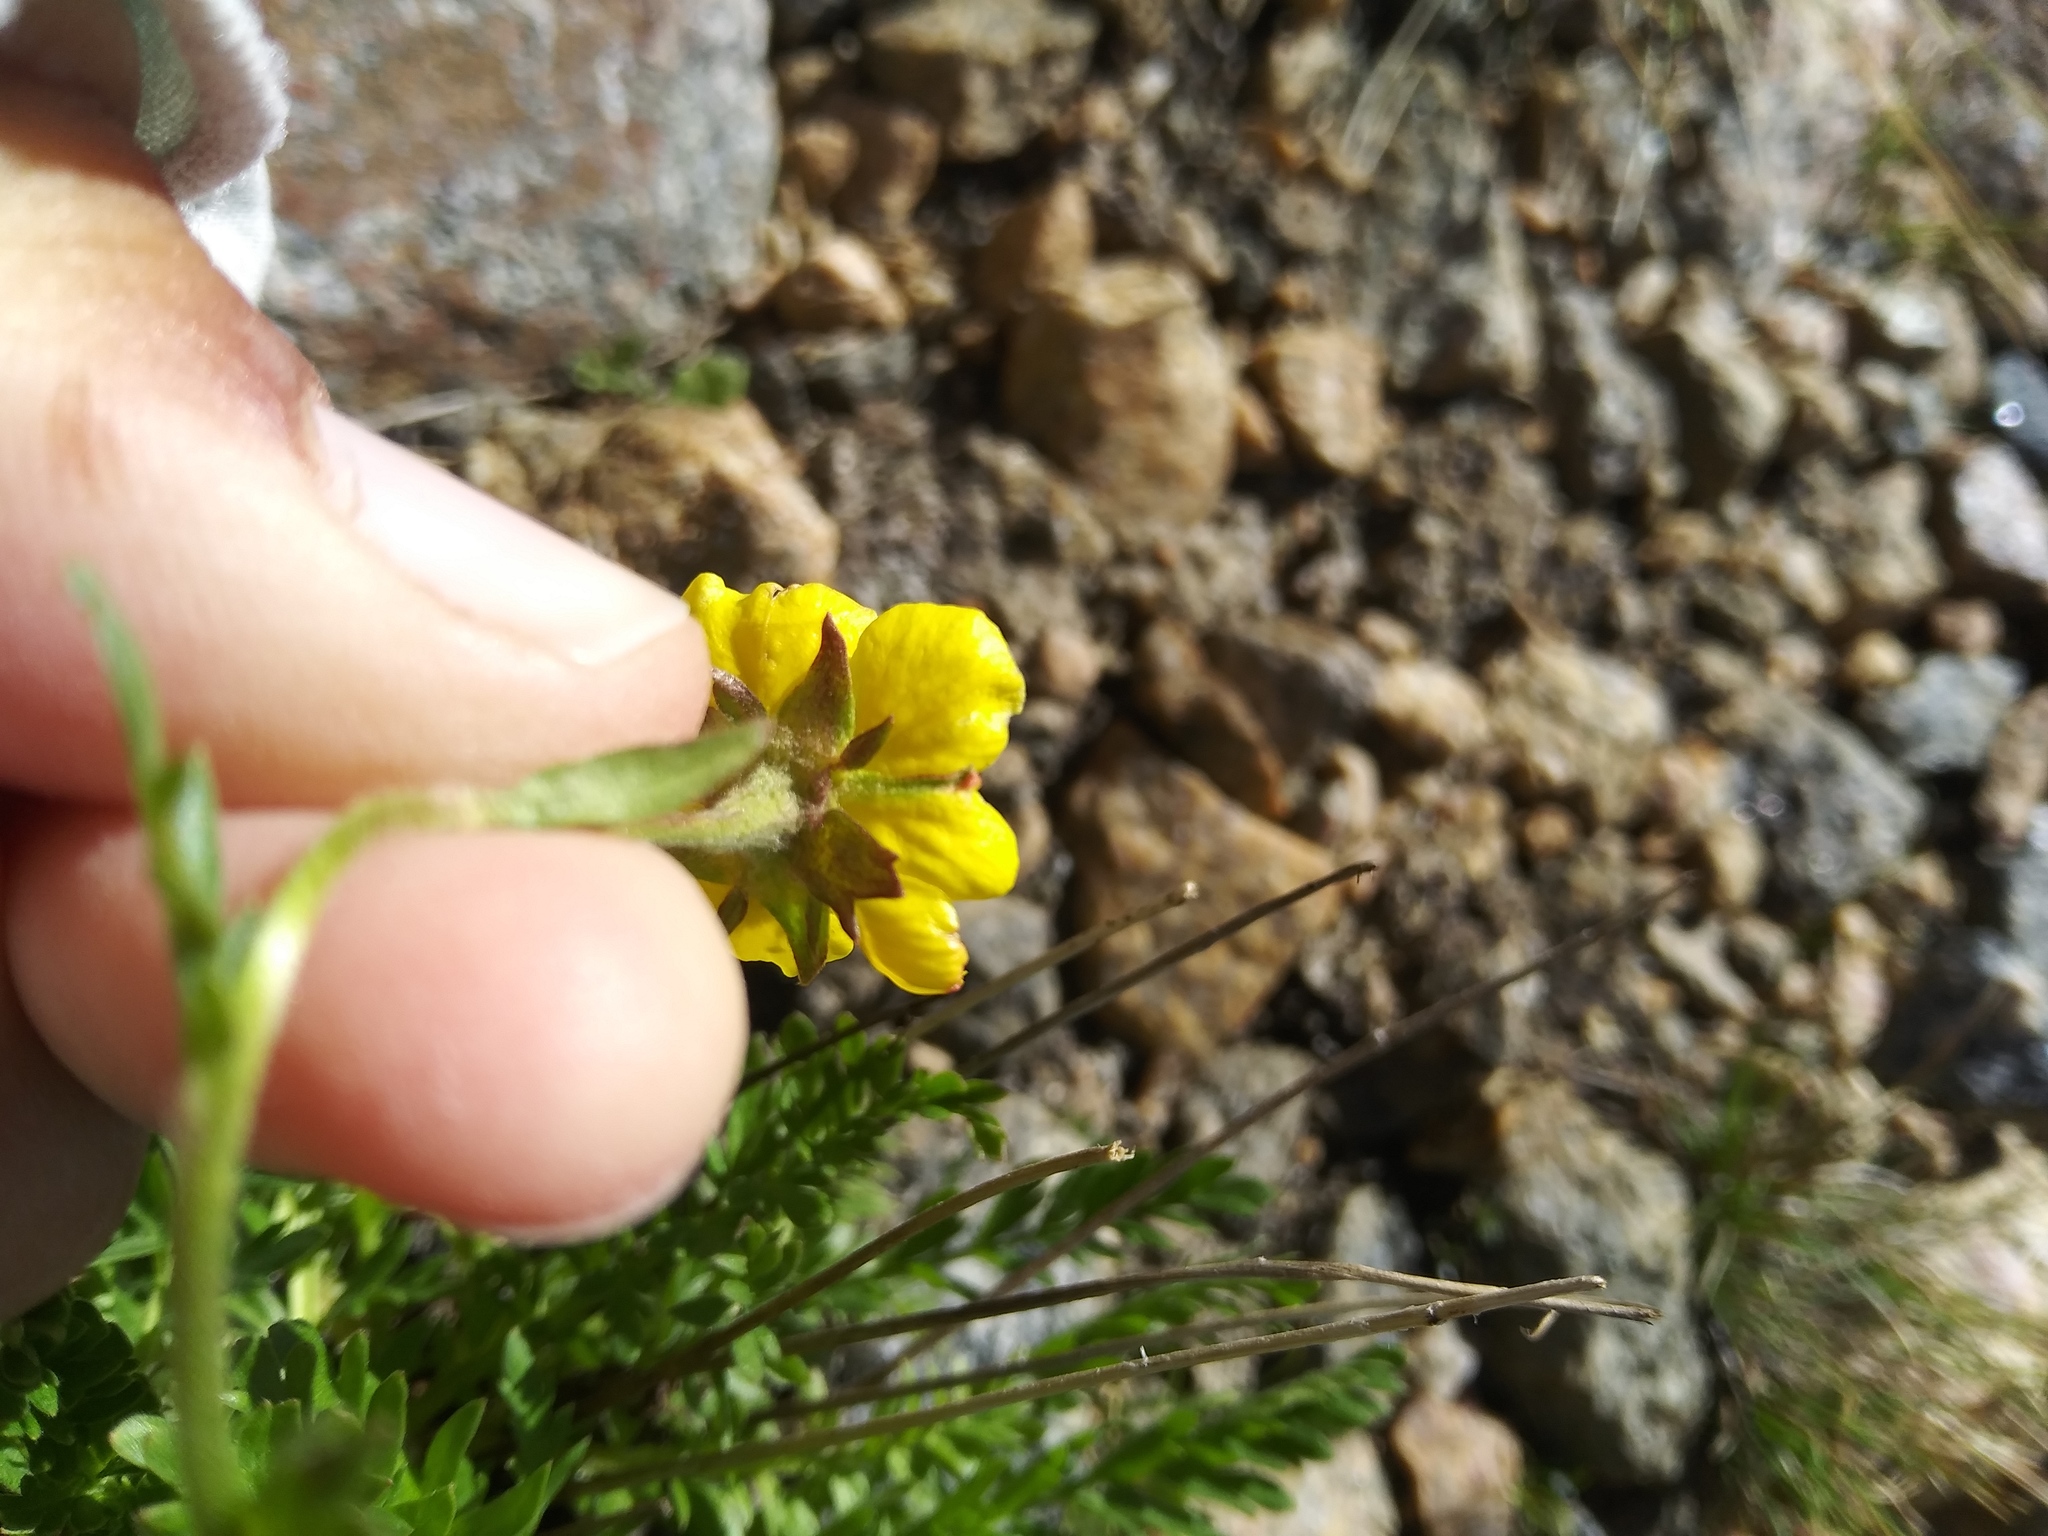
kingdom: Plantae
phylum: Tracheophyta
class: Magnoliopsida
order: Rosales
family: Rosaceae
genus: Geum
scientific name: Geum rossii
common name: Alpine avens
